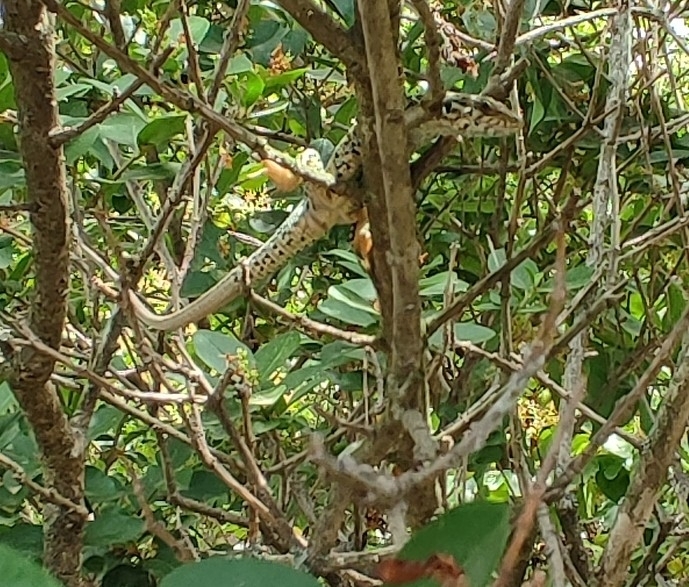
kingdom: Animalia
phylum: Chordata
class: Squamata
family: Lacertidae
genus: Podarcis
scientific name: Podarcis muralis
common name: Common wall lizard
